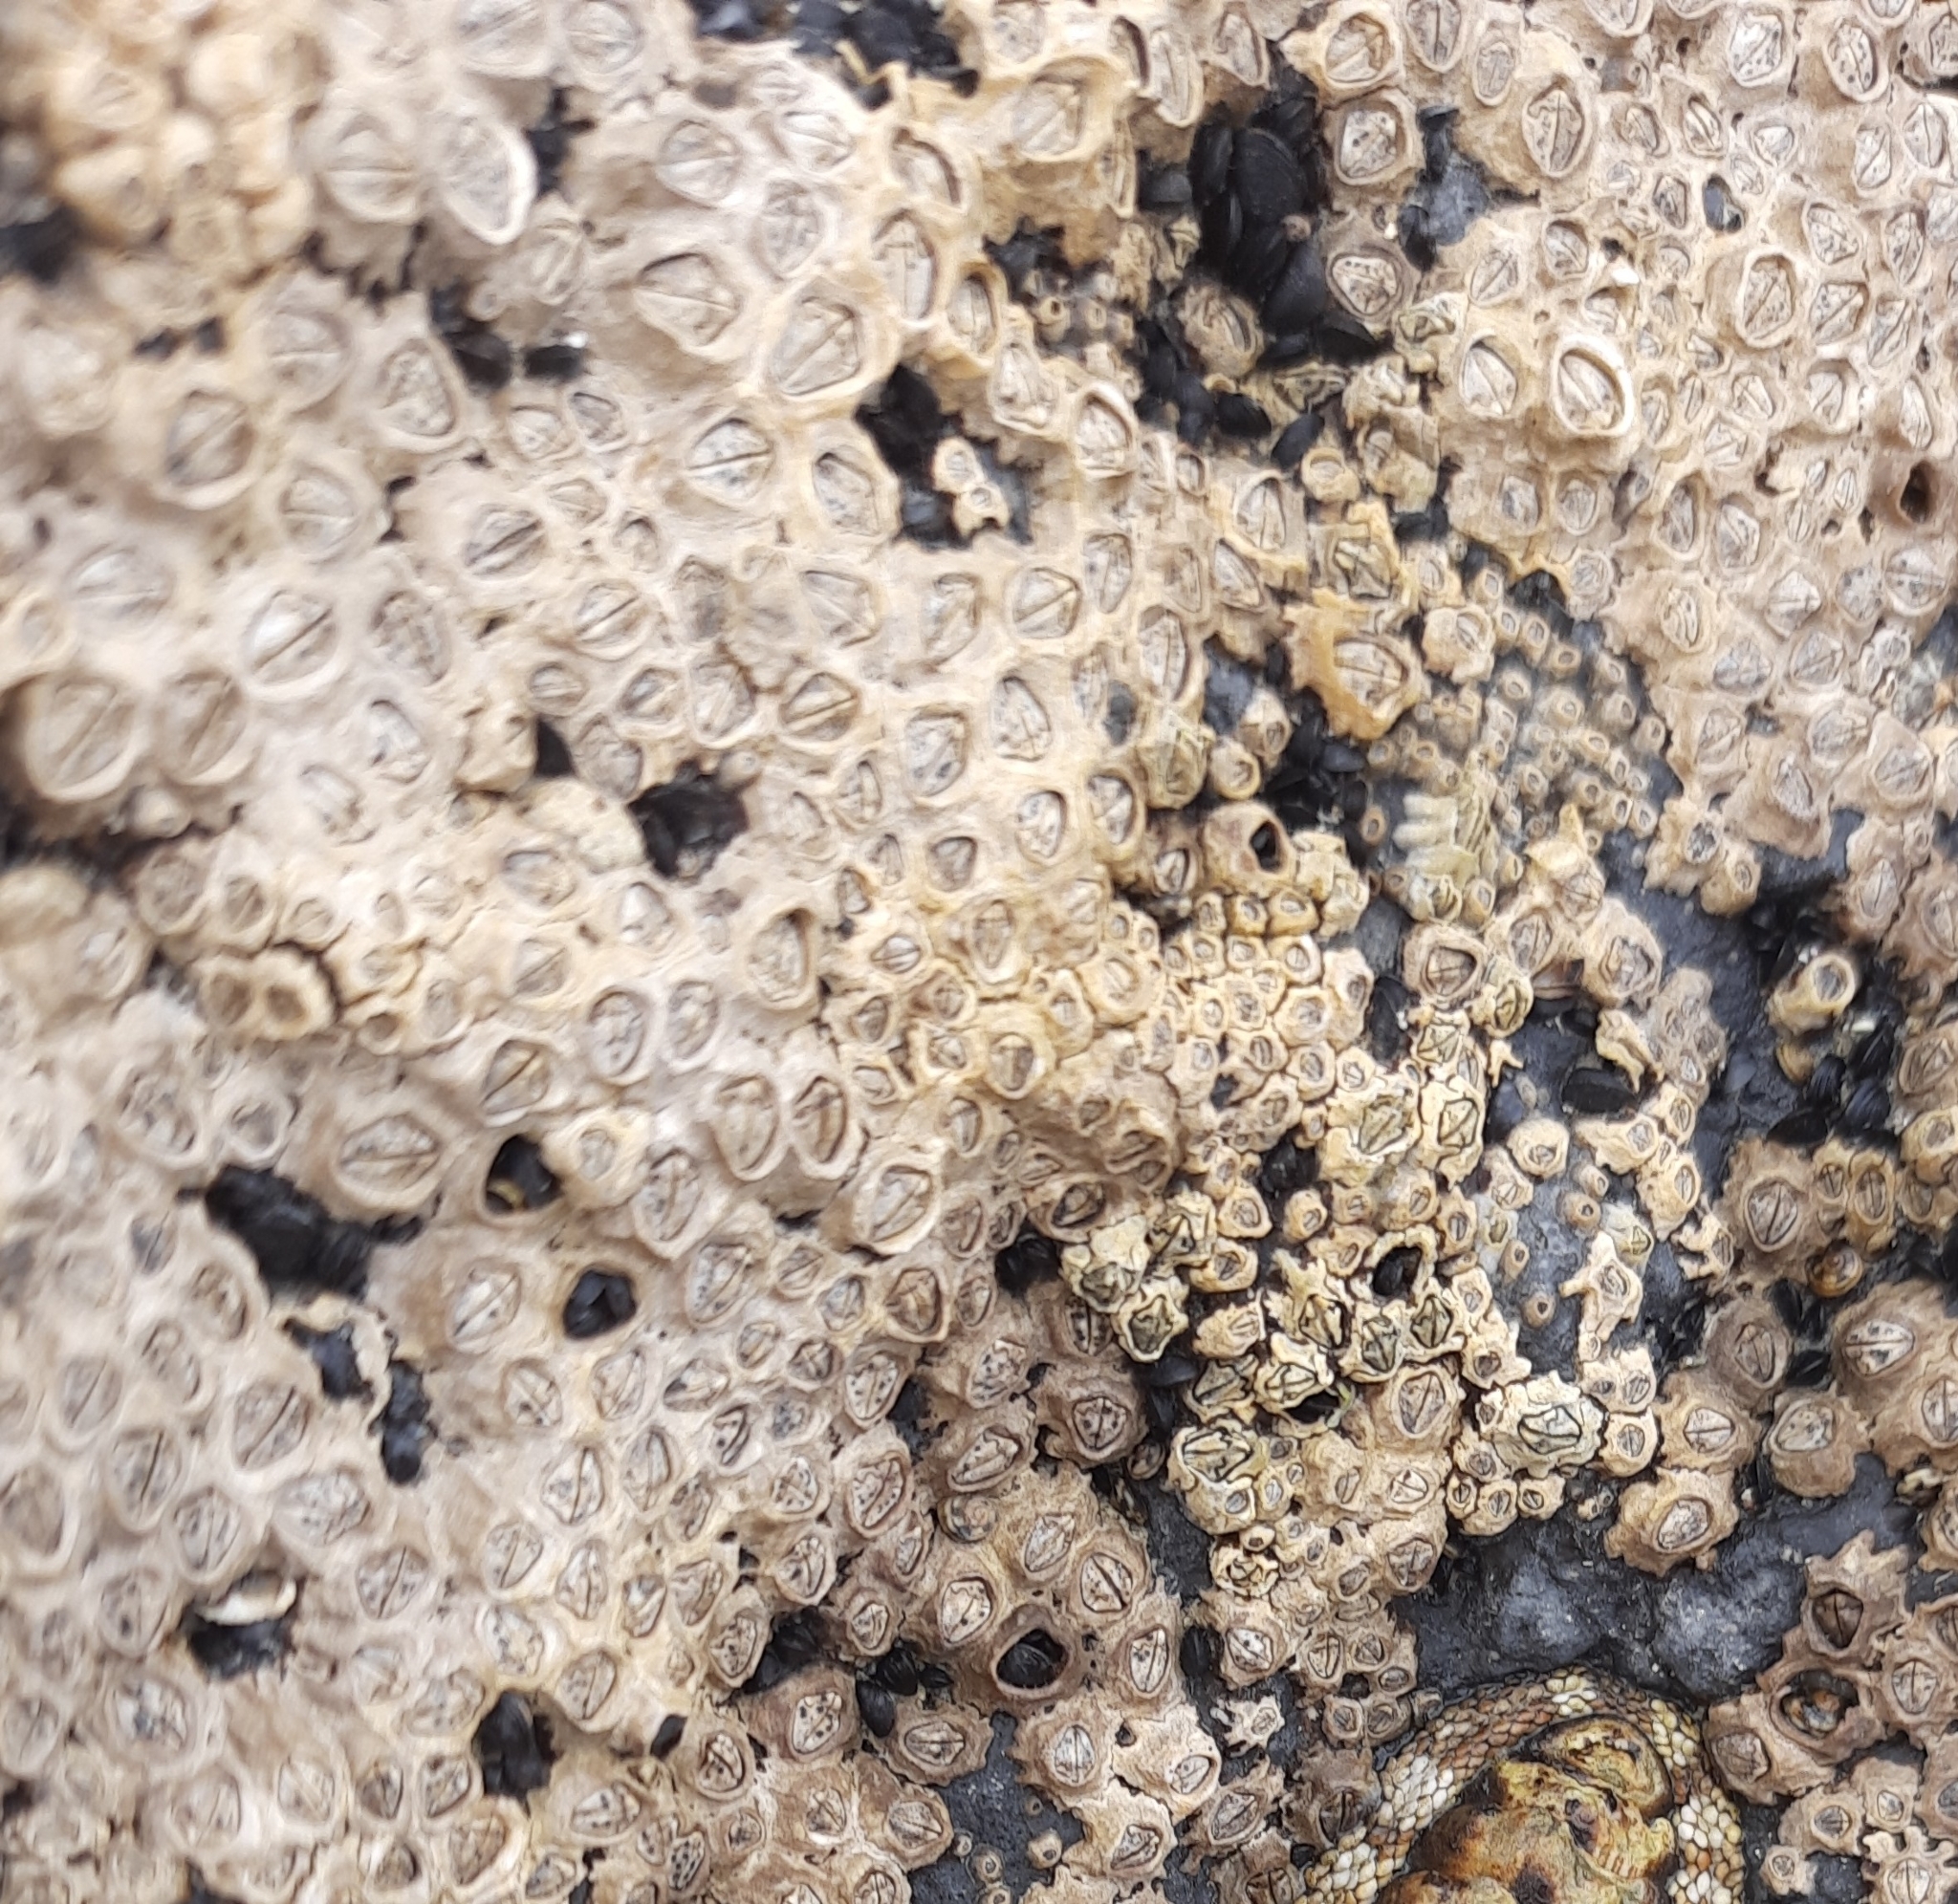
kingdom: Animalia
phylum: Arthropoda
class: Maxillopoda
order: Sessilia
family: Chthamalidae
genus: Chamaesipho
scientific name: Chamaesipho columna
